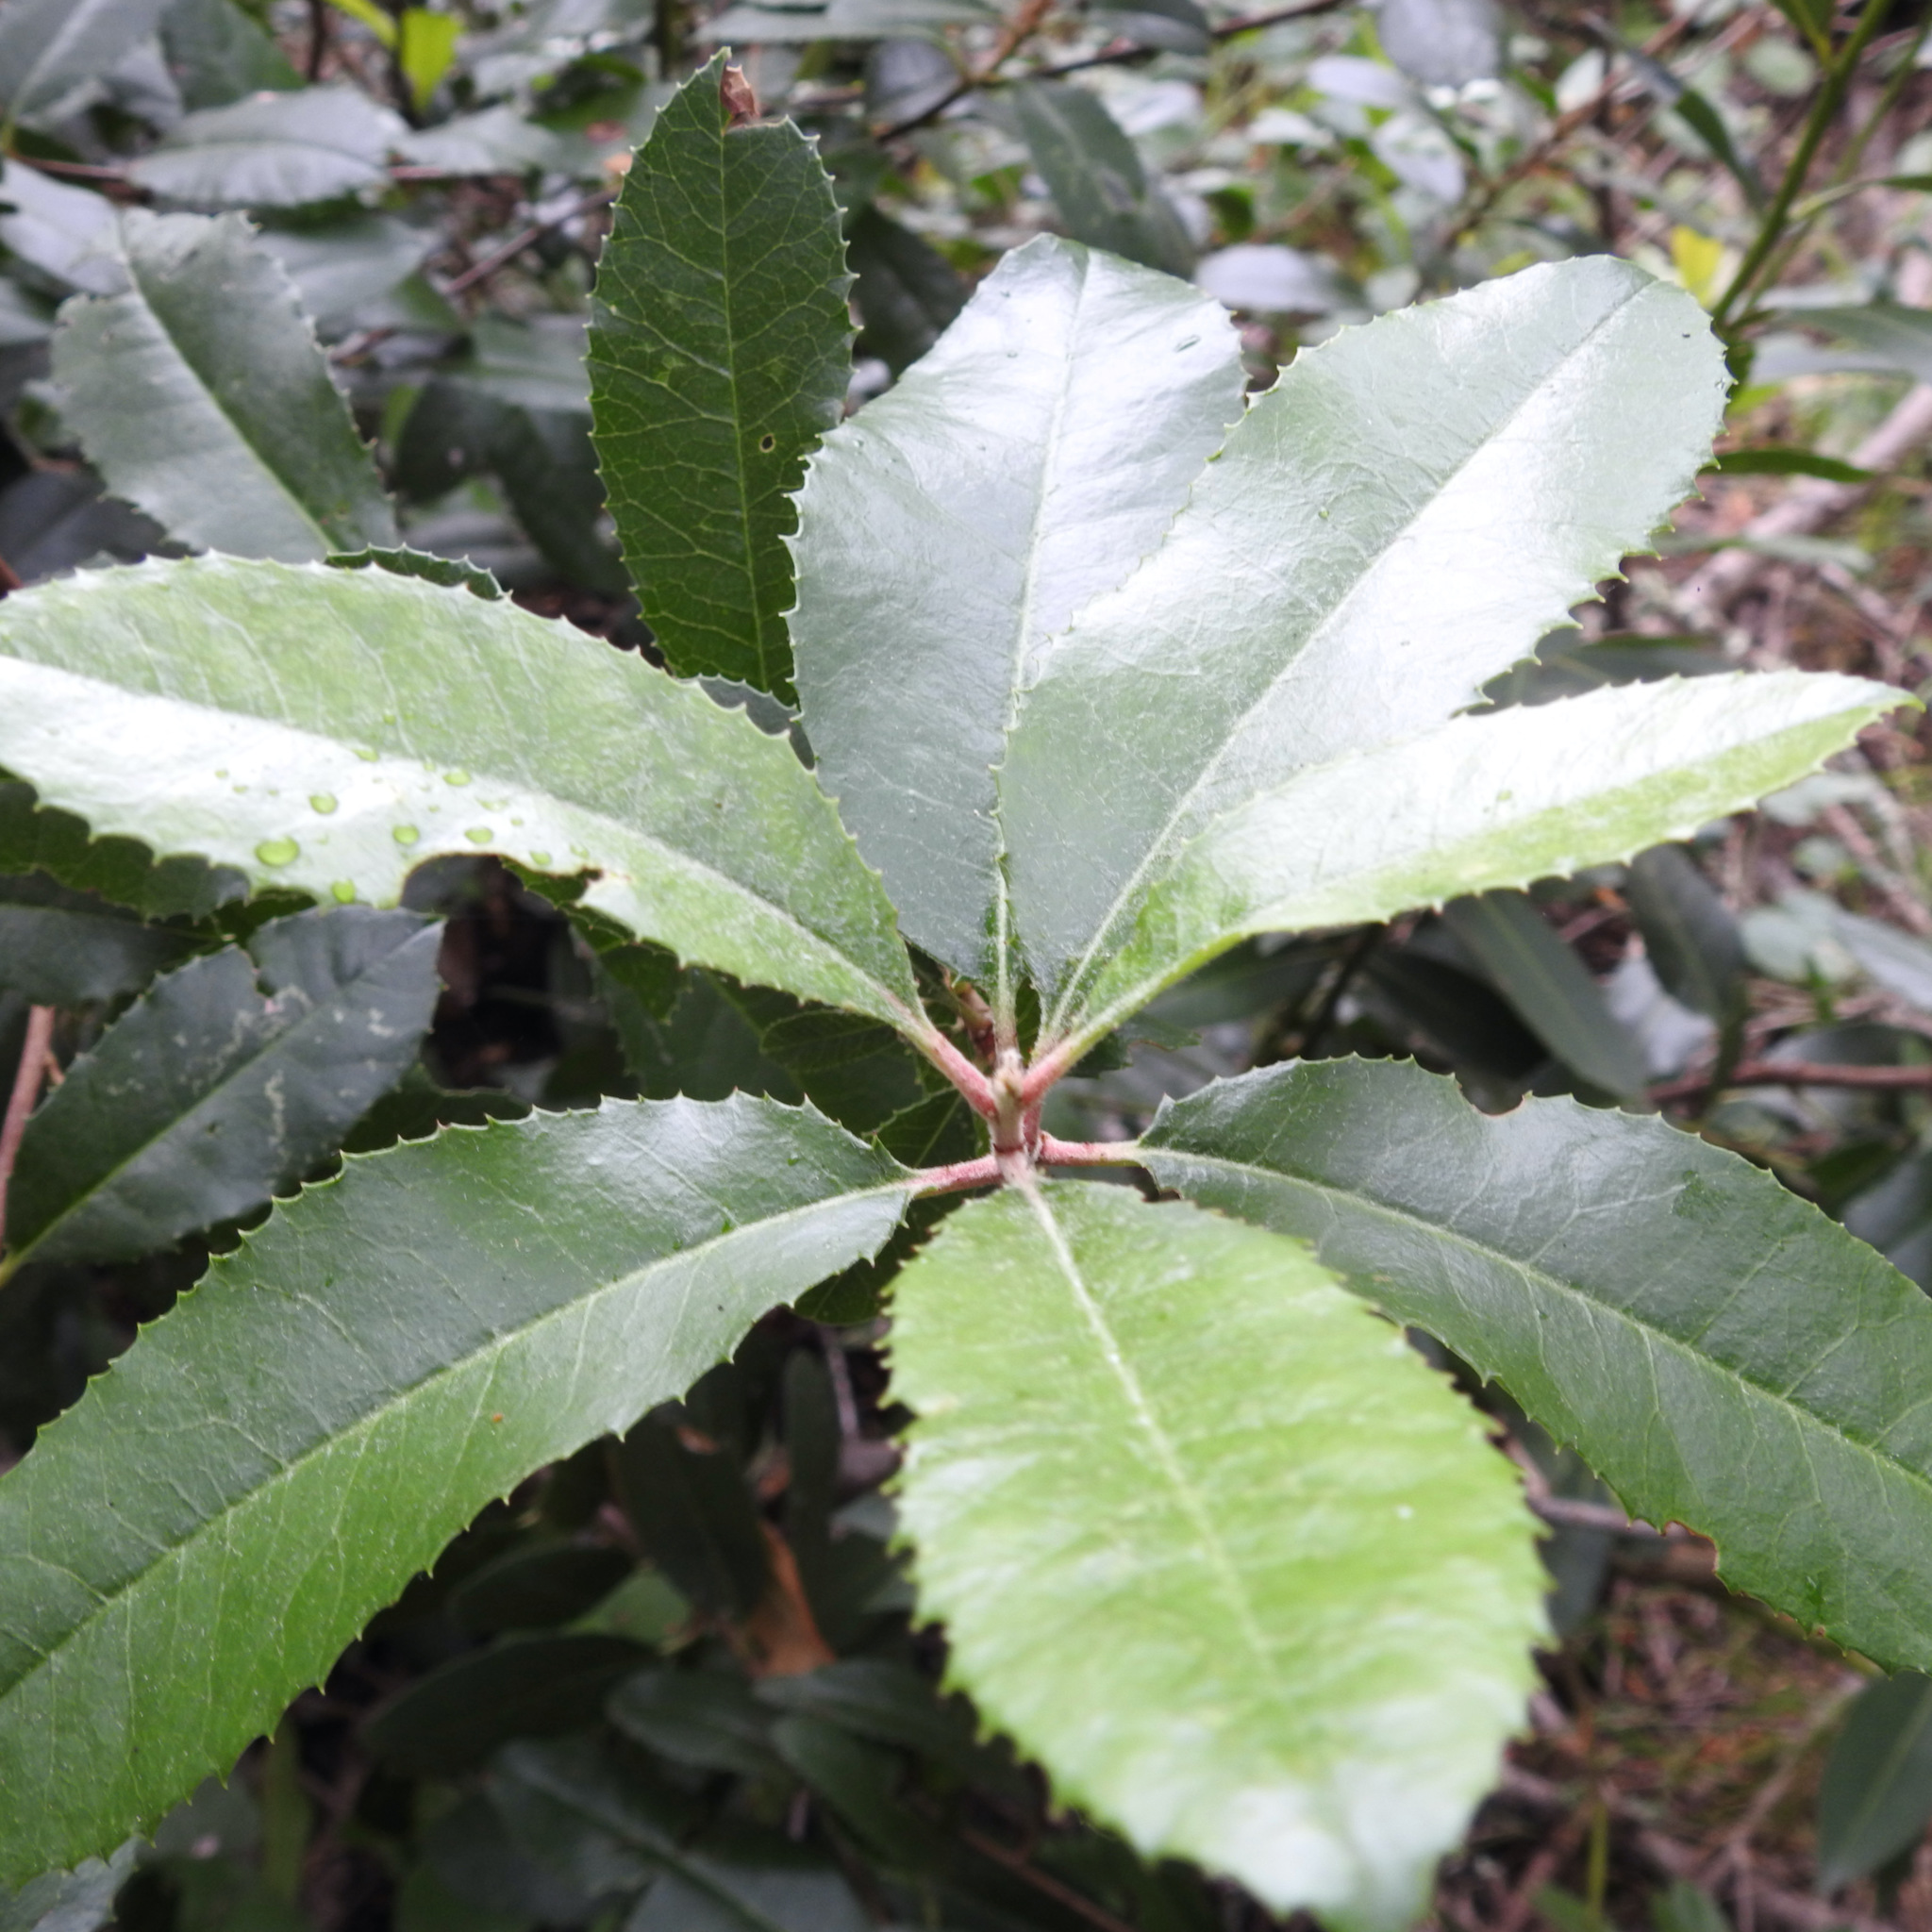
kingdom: Plantae
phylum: Tracheophyta
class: Magnoliopsida
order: Rosales
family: Rosaceae
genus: Heteromeles
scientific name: Heteromeles arbutifolia
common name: California-holly
